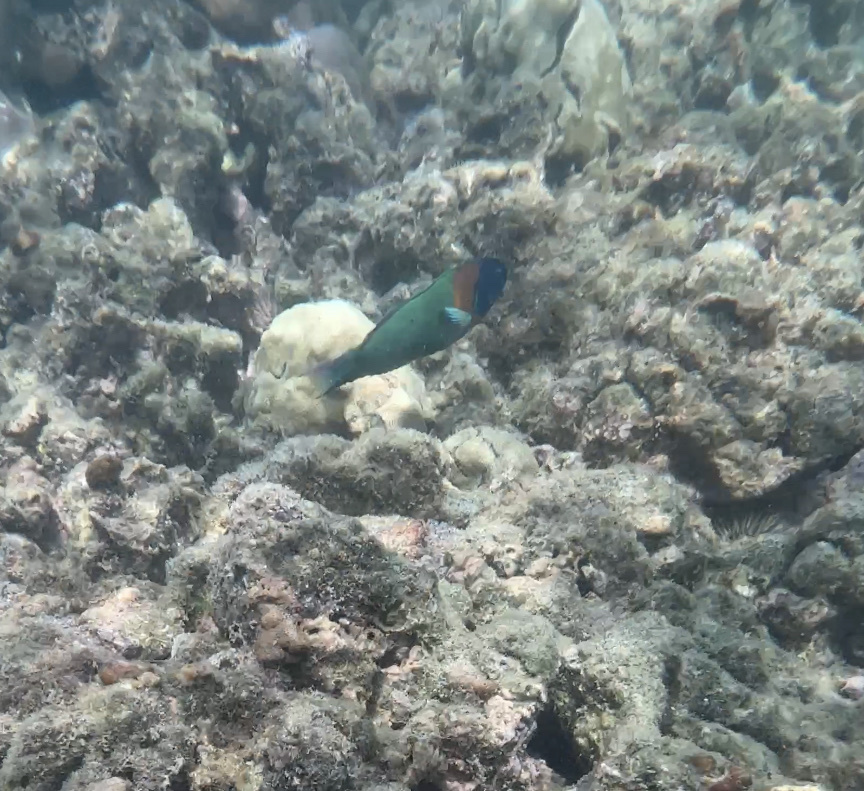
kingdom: Animalia
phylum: Chordata
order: Perciformes
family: Labridae
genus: Thalassoma
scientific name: Thalassoma duperrey
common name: Saddle wrasse
